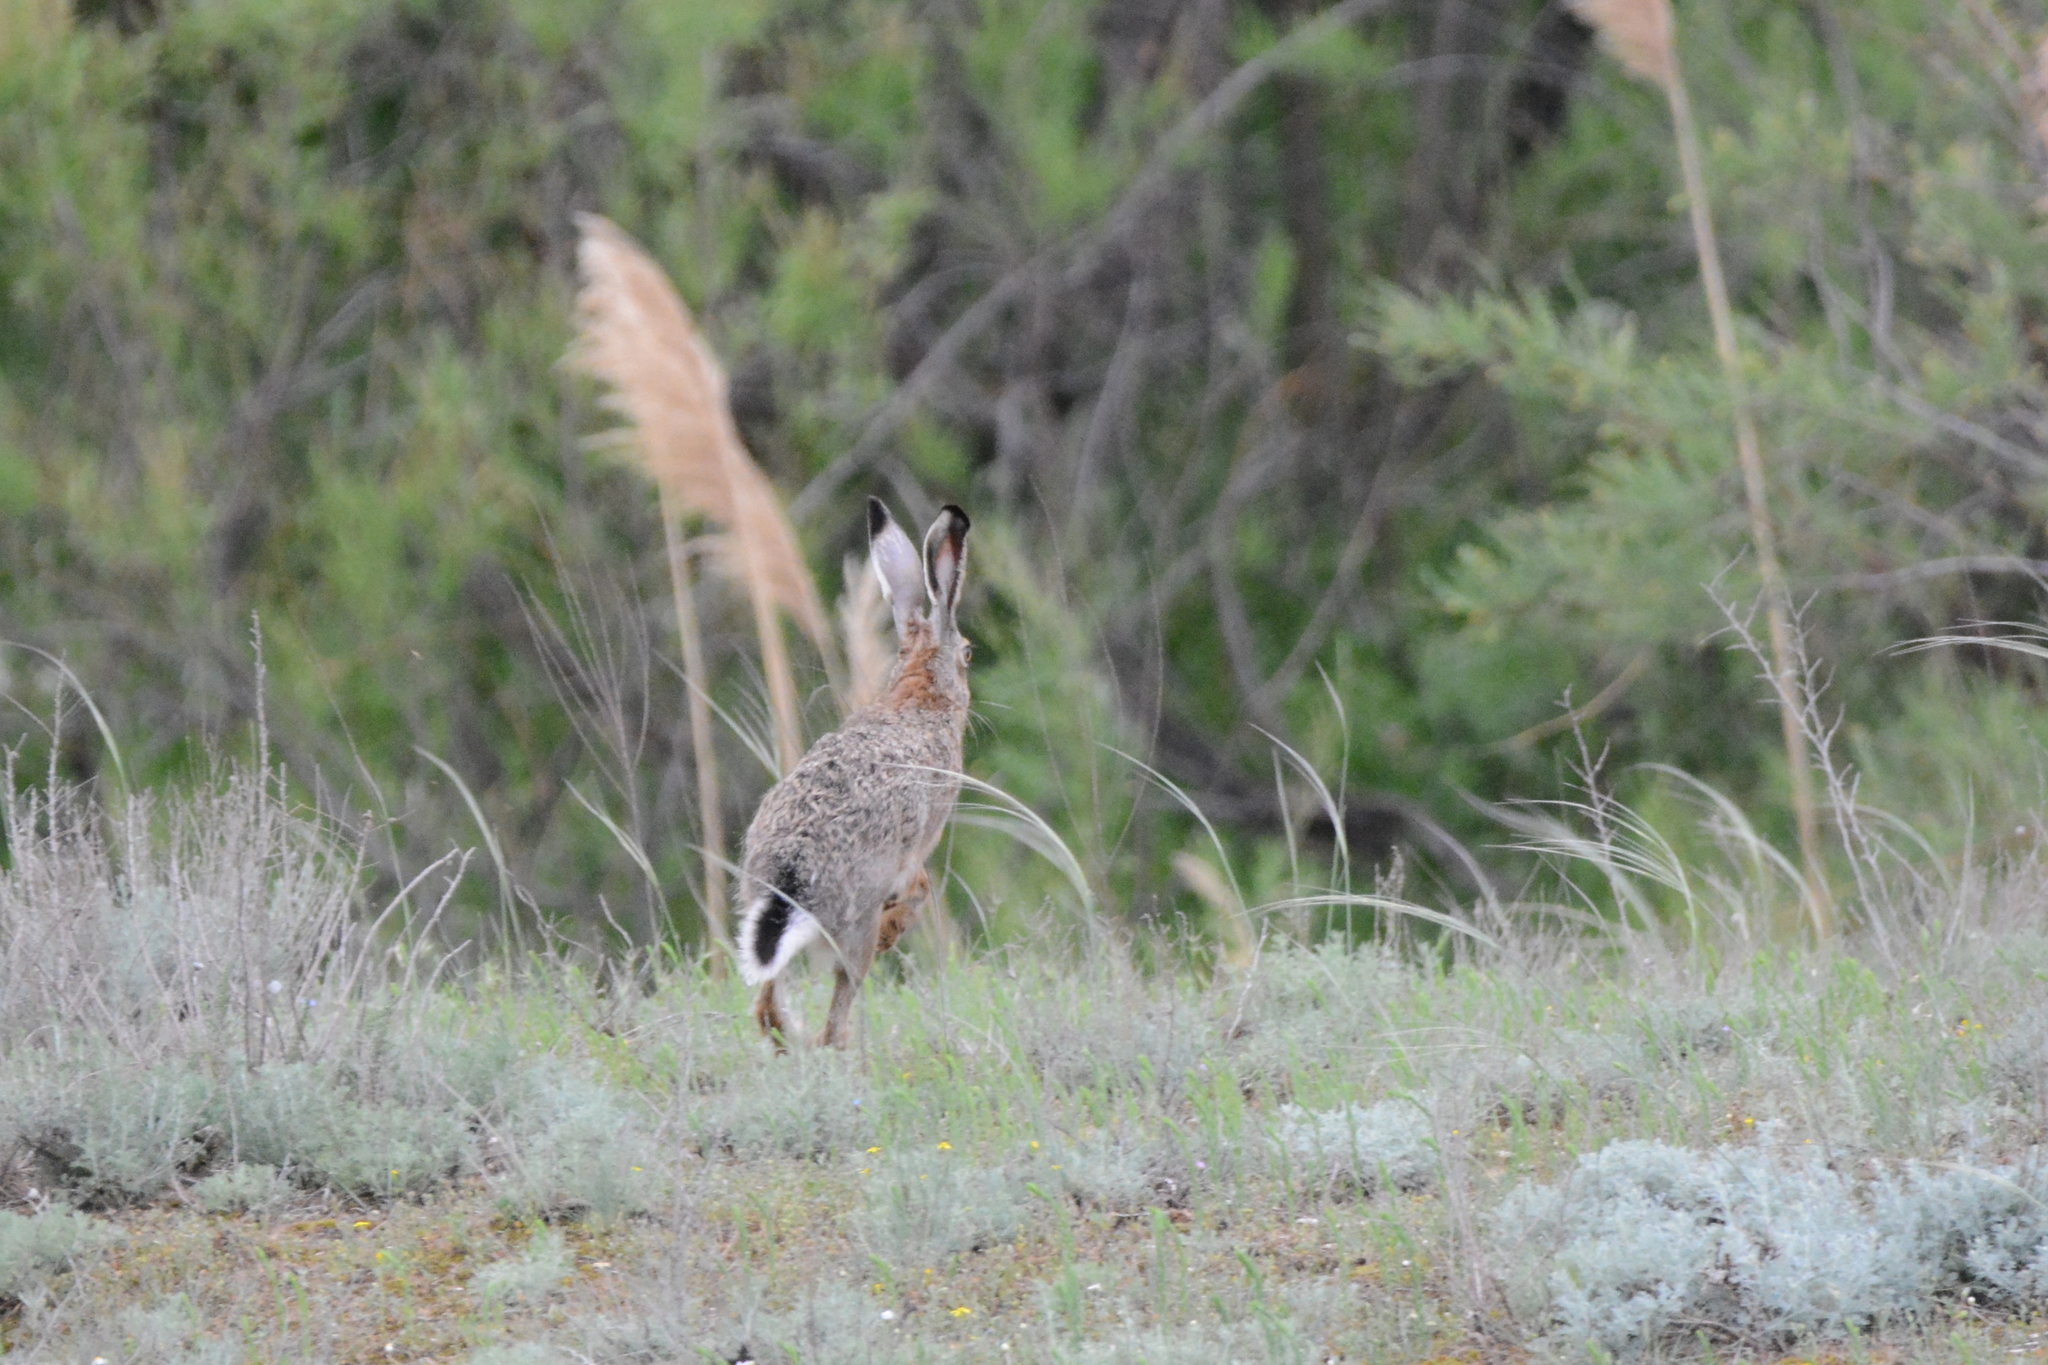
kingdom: Animalia
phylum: Chordata
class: Mammalia
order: Lagomorpha
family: Leporidae
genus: Lepus
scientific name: Lepus europaeus
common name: European hare
